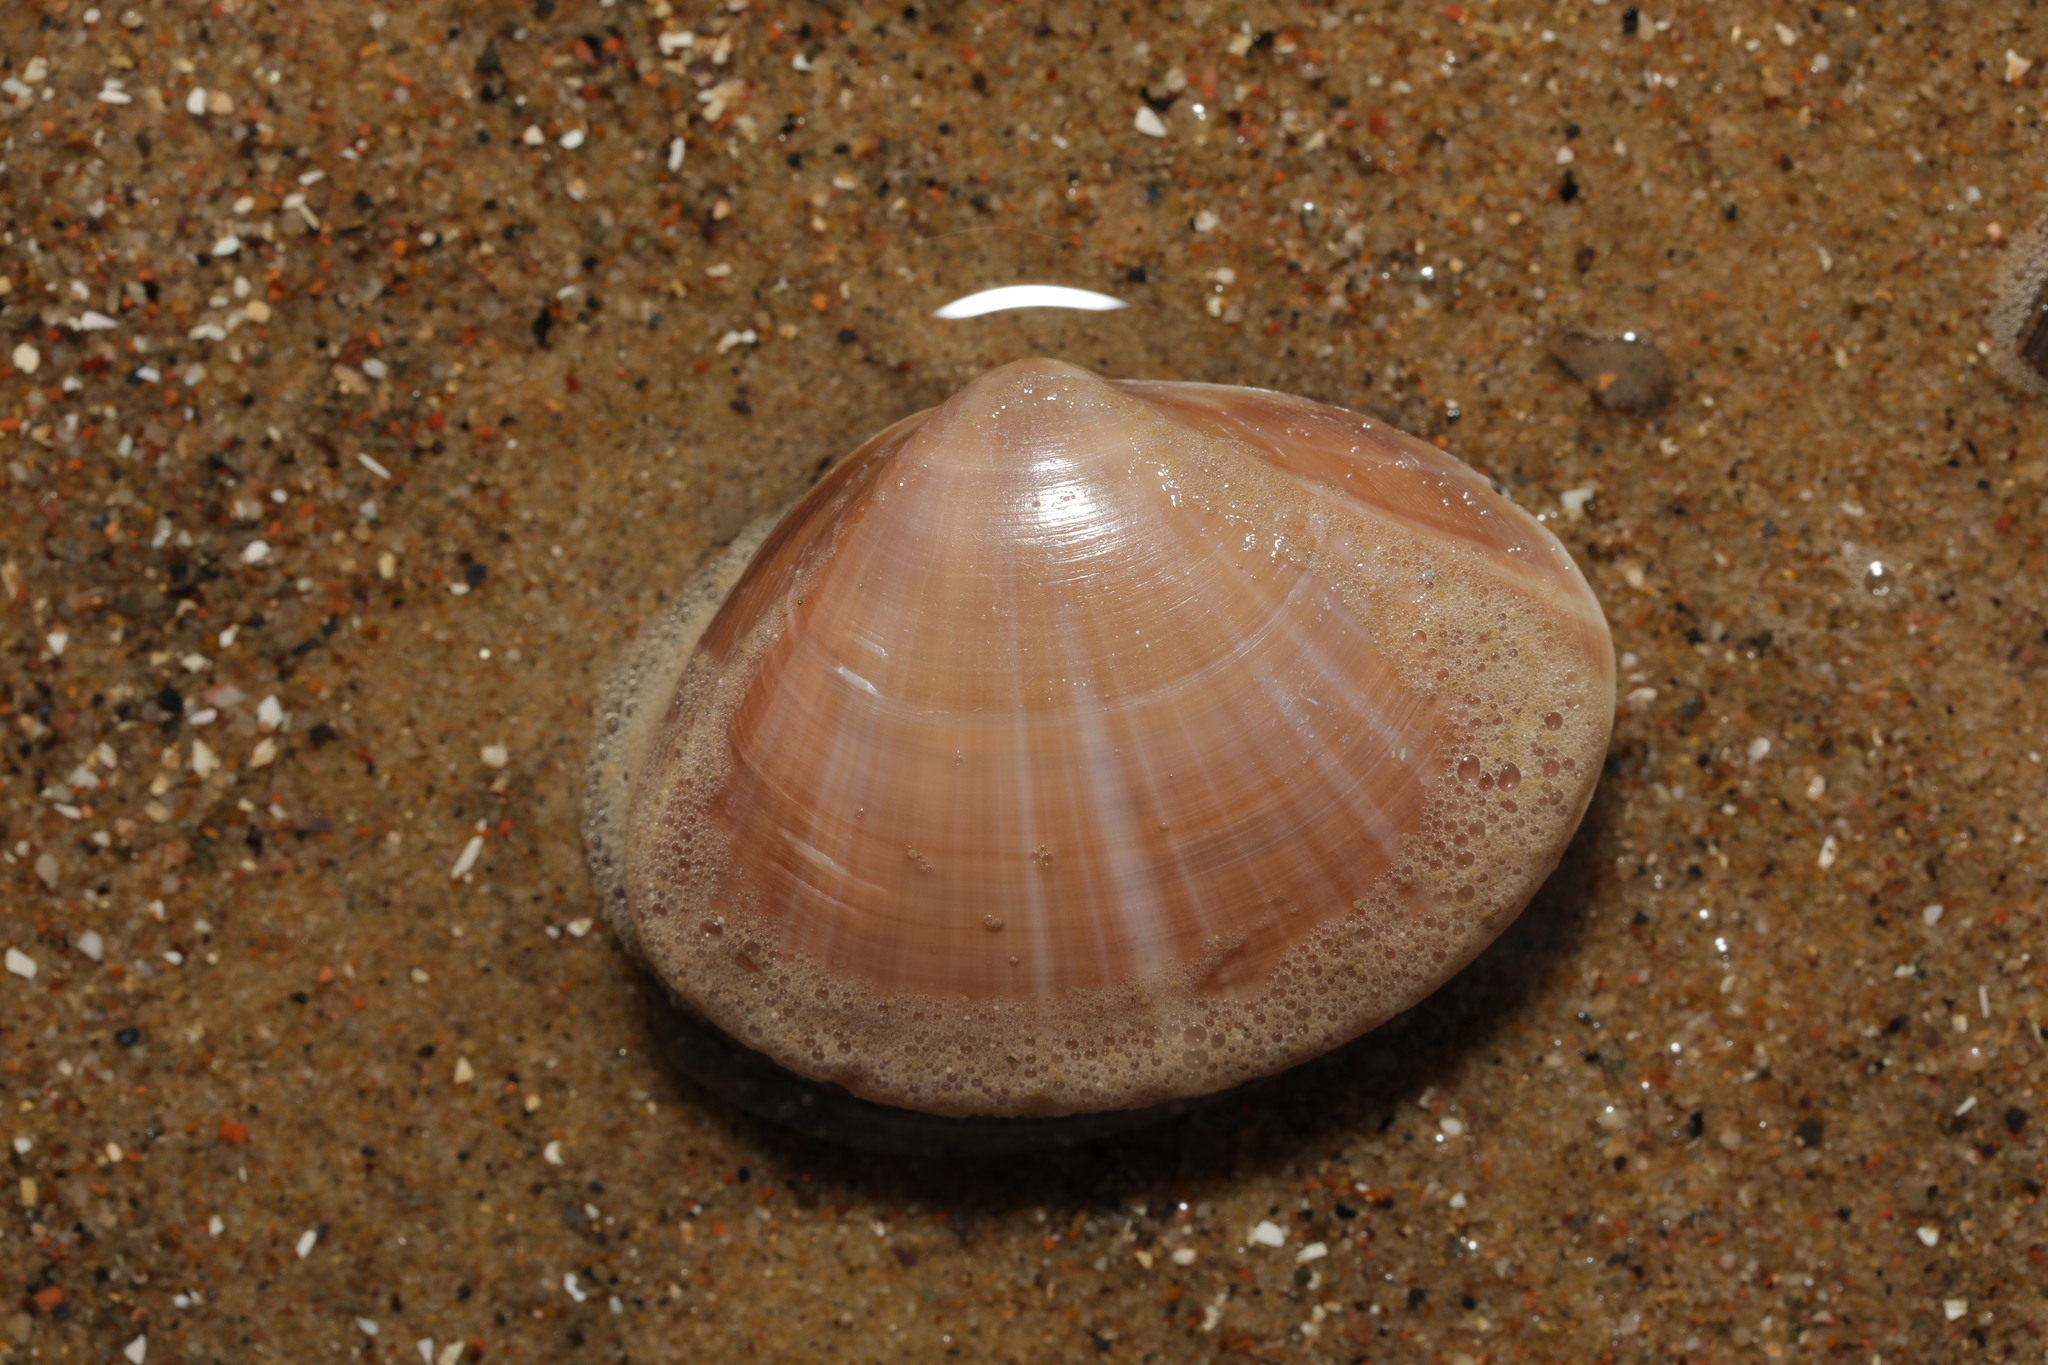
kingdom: Animalia
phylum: Mollusca
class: Bivalvia
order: Venerida
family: Mactridae
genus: Mactra
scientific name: Mactra stultorum
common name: Rayed trough shell
